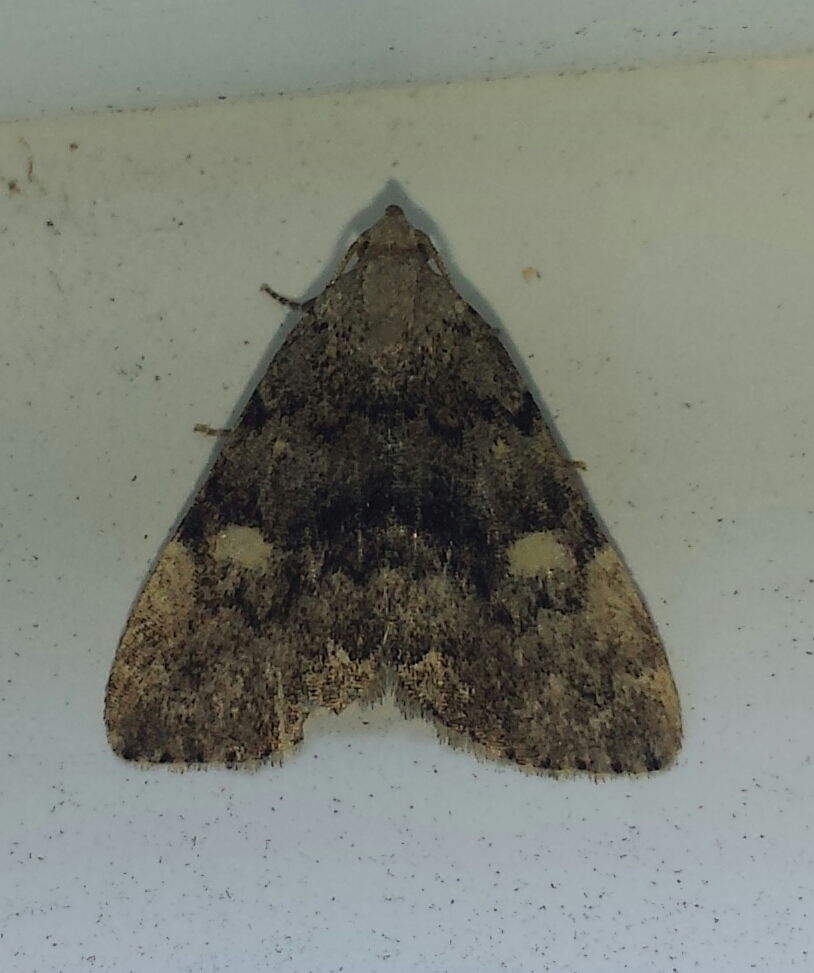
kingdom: Animalia
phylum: Arthropoda
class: Insecta
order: Lepidoptera
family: Erebidae
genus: Idia
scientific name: Idia aemula
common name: Common idia moth
